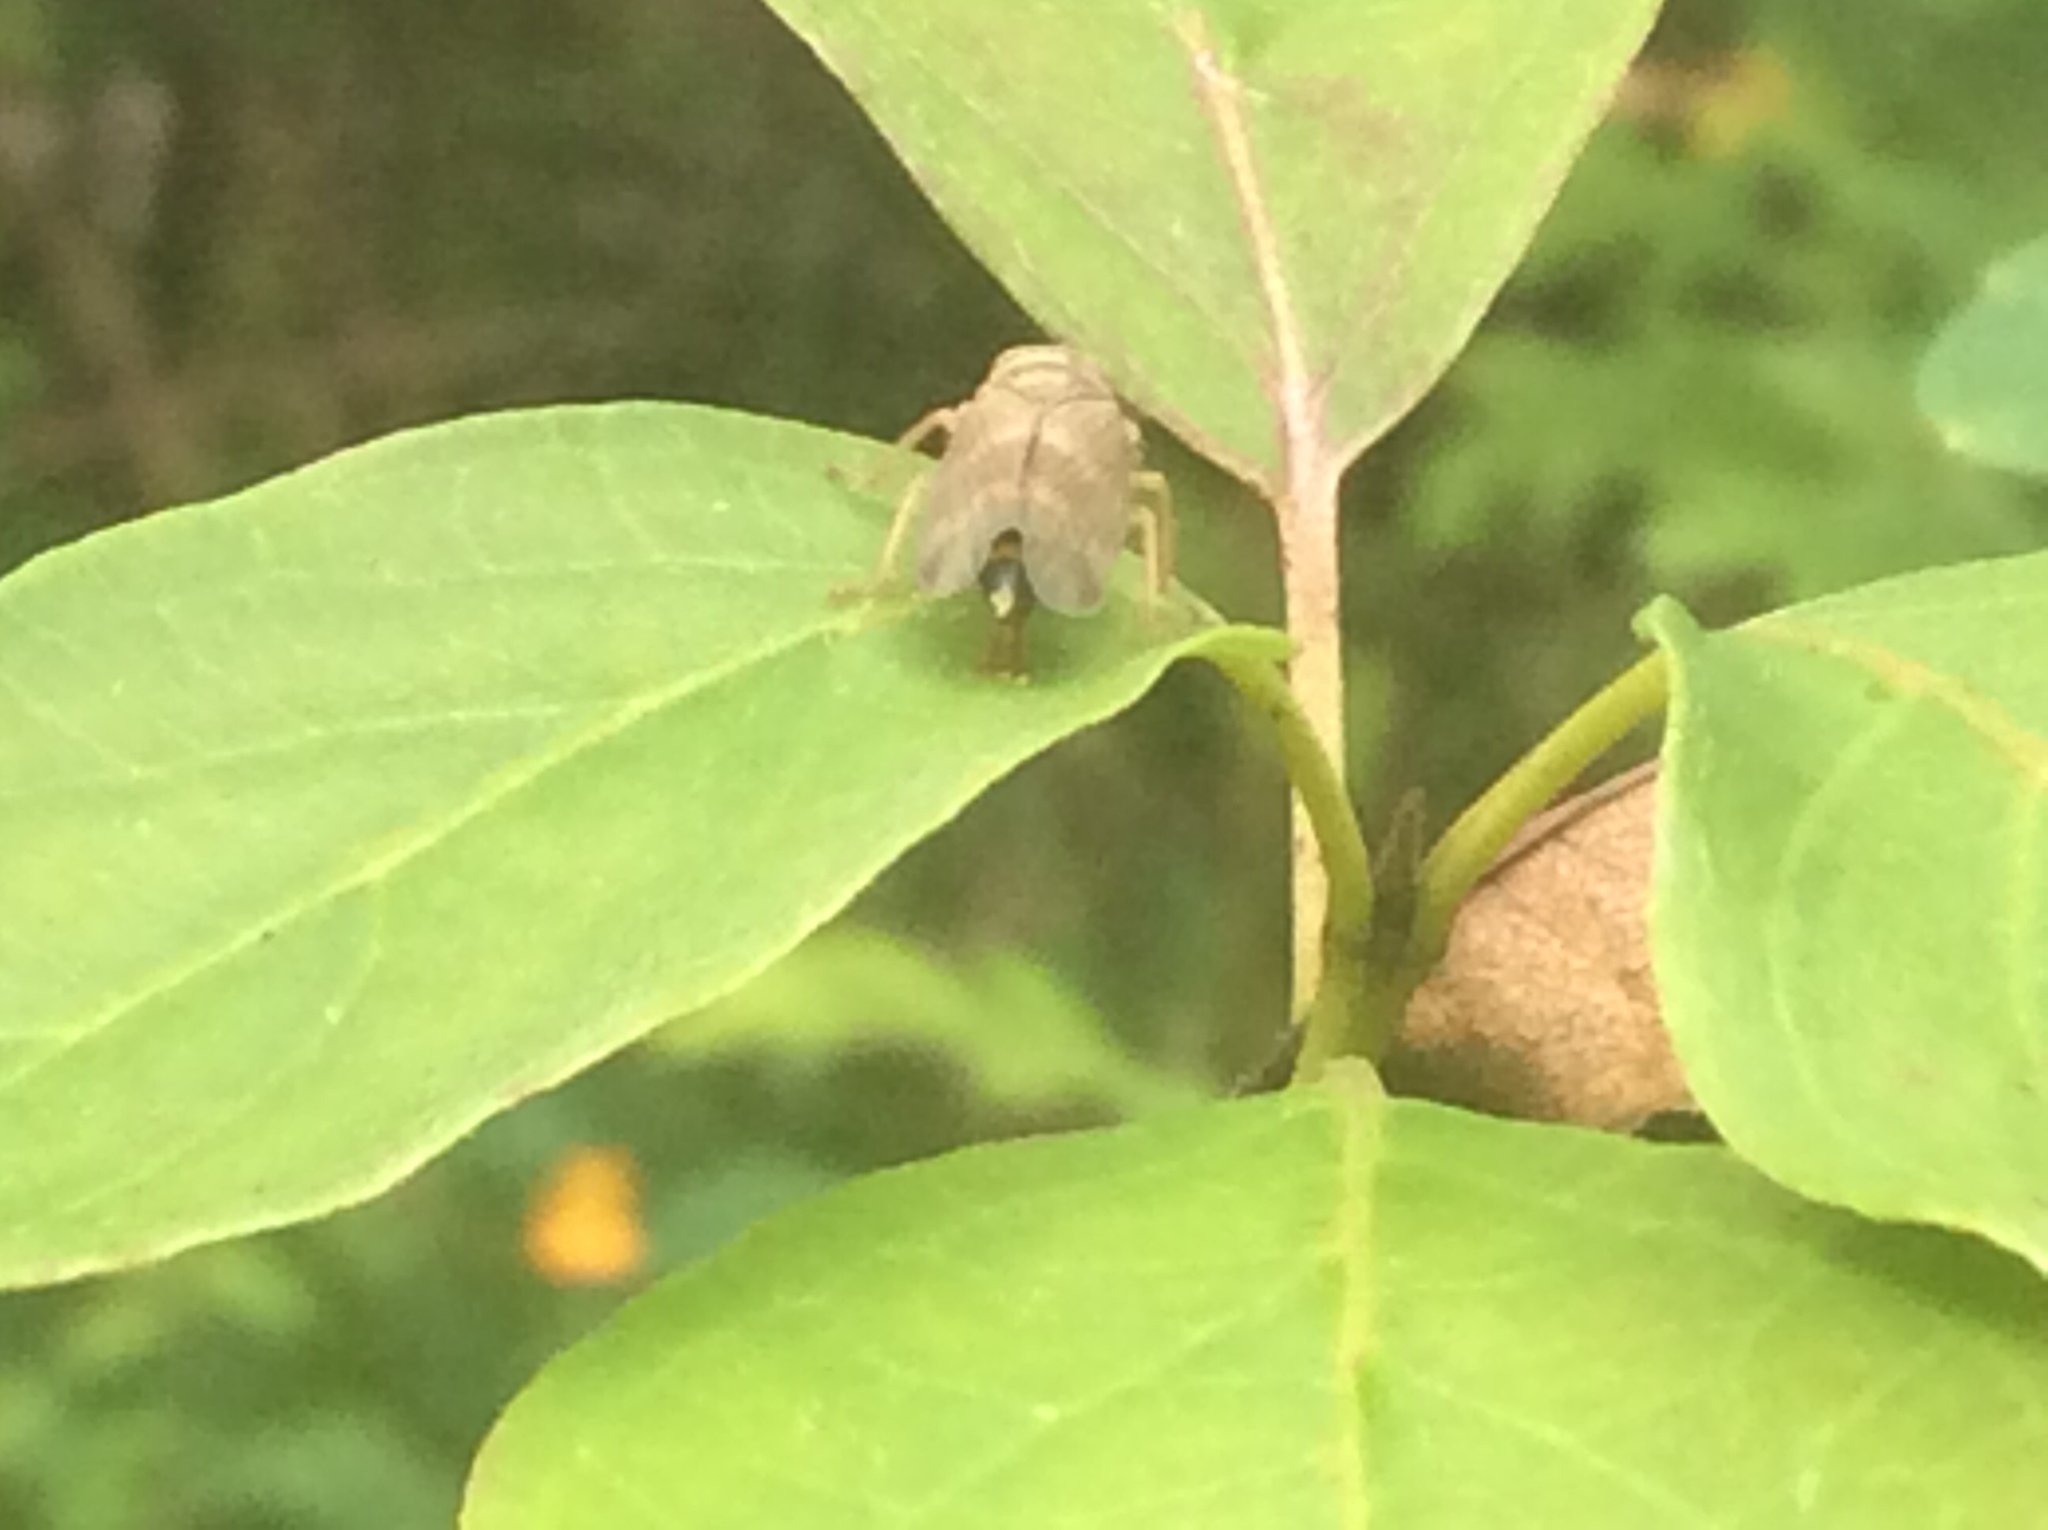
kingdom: Animalia
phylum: Arthropoda
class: Insecta
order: Hemiptera
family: Cicadellidae
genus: Jikradia
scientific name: Jikradia olitoria
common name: Coppery leafhopper
